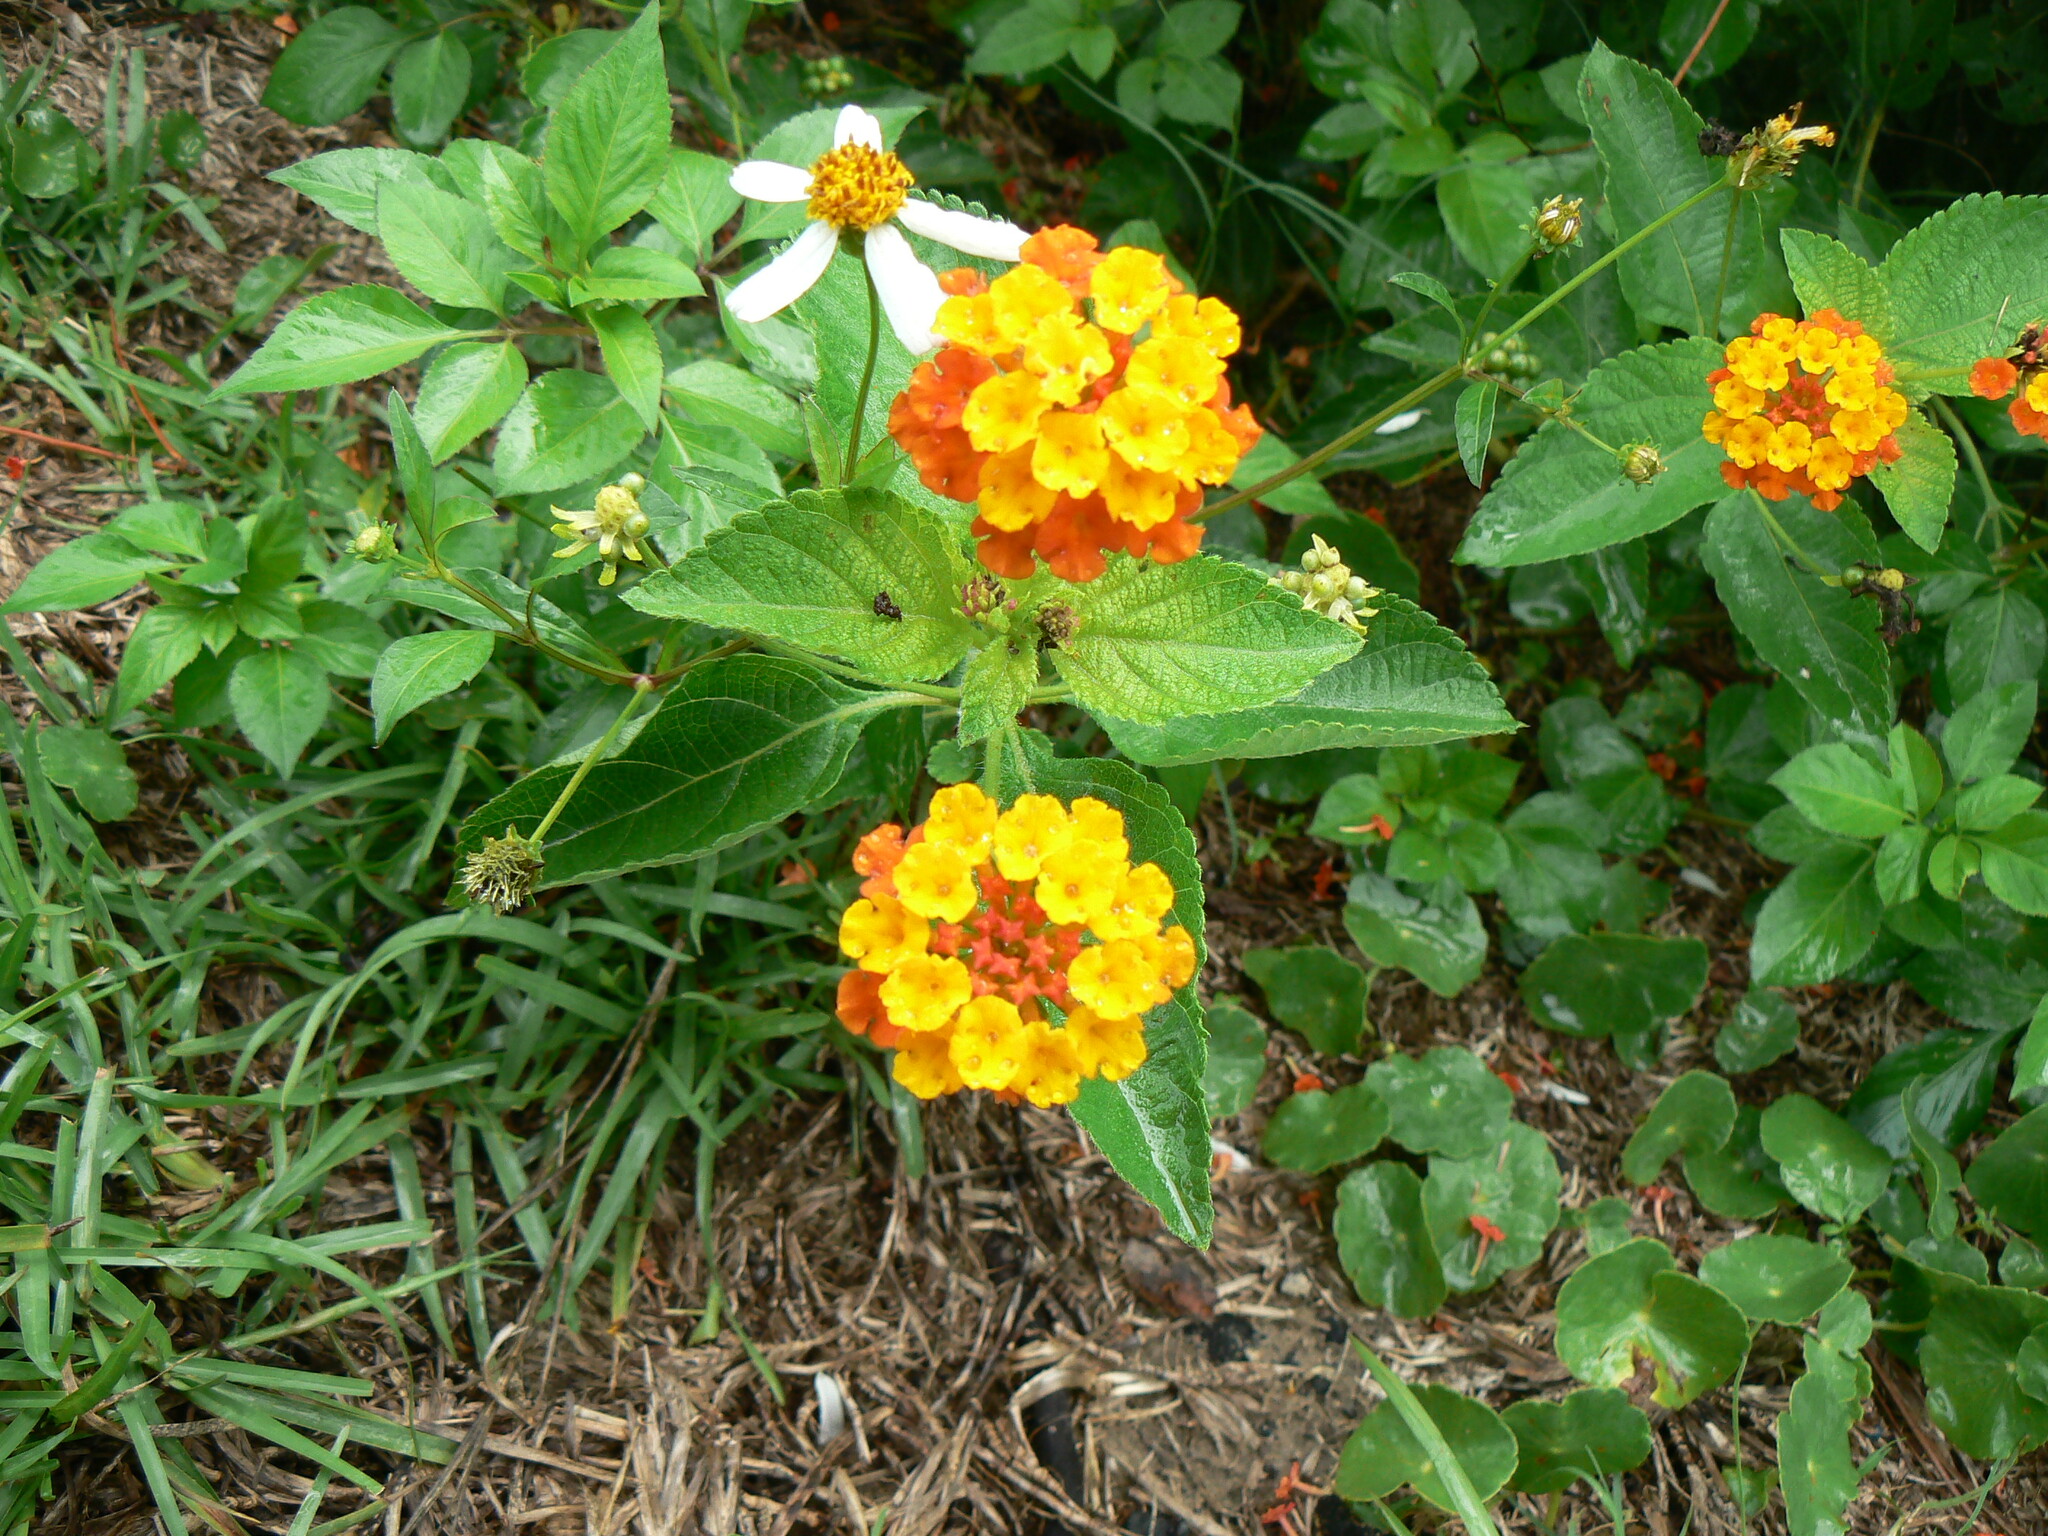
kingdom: Plantae
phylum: Tracheophyta
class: Magnoliopsida
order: Lamiales
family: Verbenaceae
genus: Lantana
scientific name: Lantana camara
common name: Lantana
